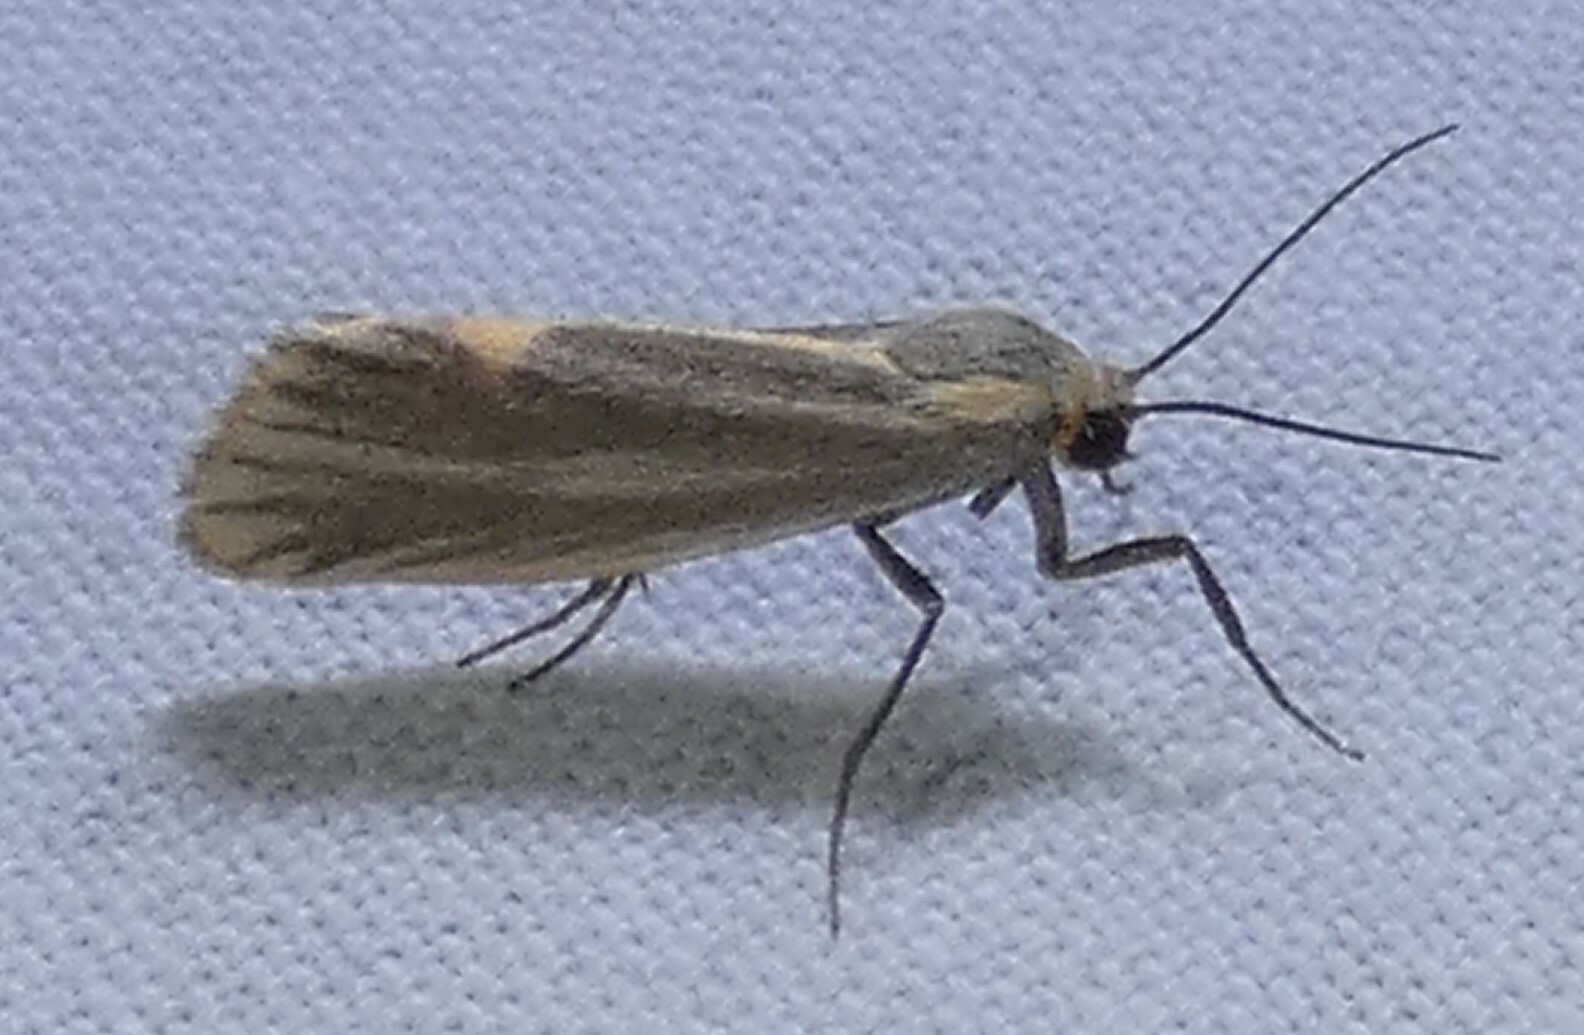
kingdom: Animalia
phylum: Arthropoda
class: Insecta
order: Lepidoptera
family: Erebidae
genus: Cisthene
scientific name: Cisthene striata
